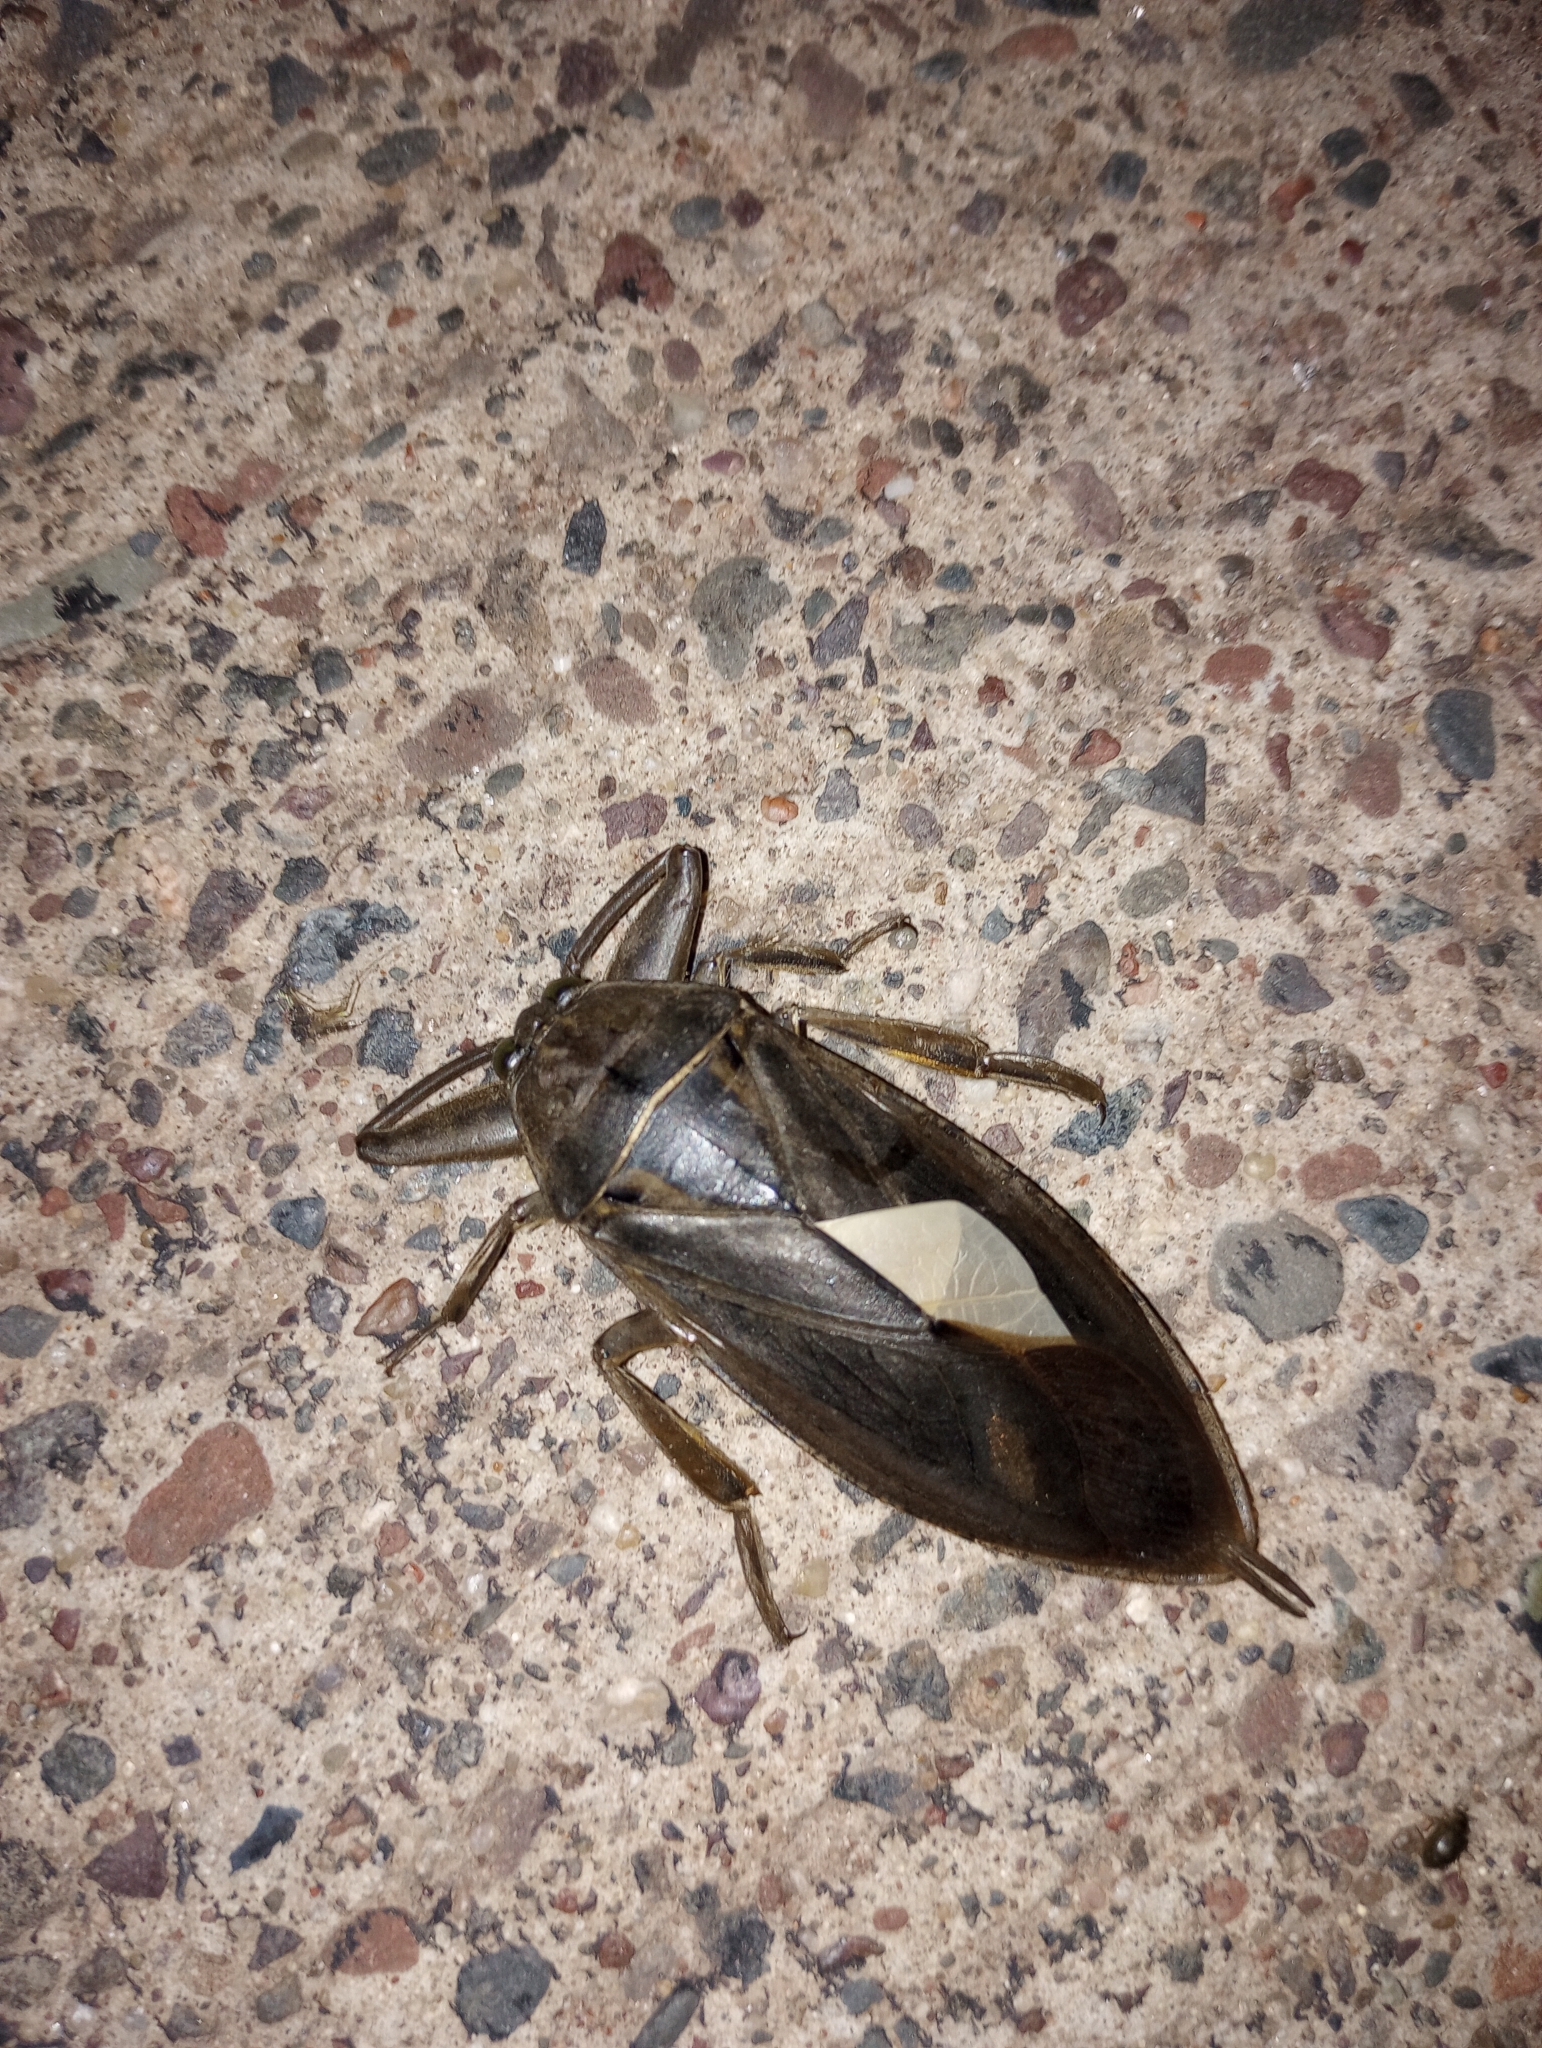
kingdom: Animalia
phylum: Arthropoda
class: Insecta
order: Hemiptera
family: Belostomatidae
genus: Lethocerus
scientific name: Lethocerus americanus
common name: Giant water bug
